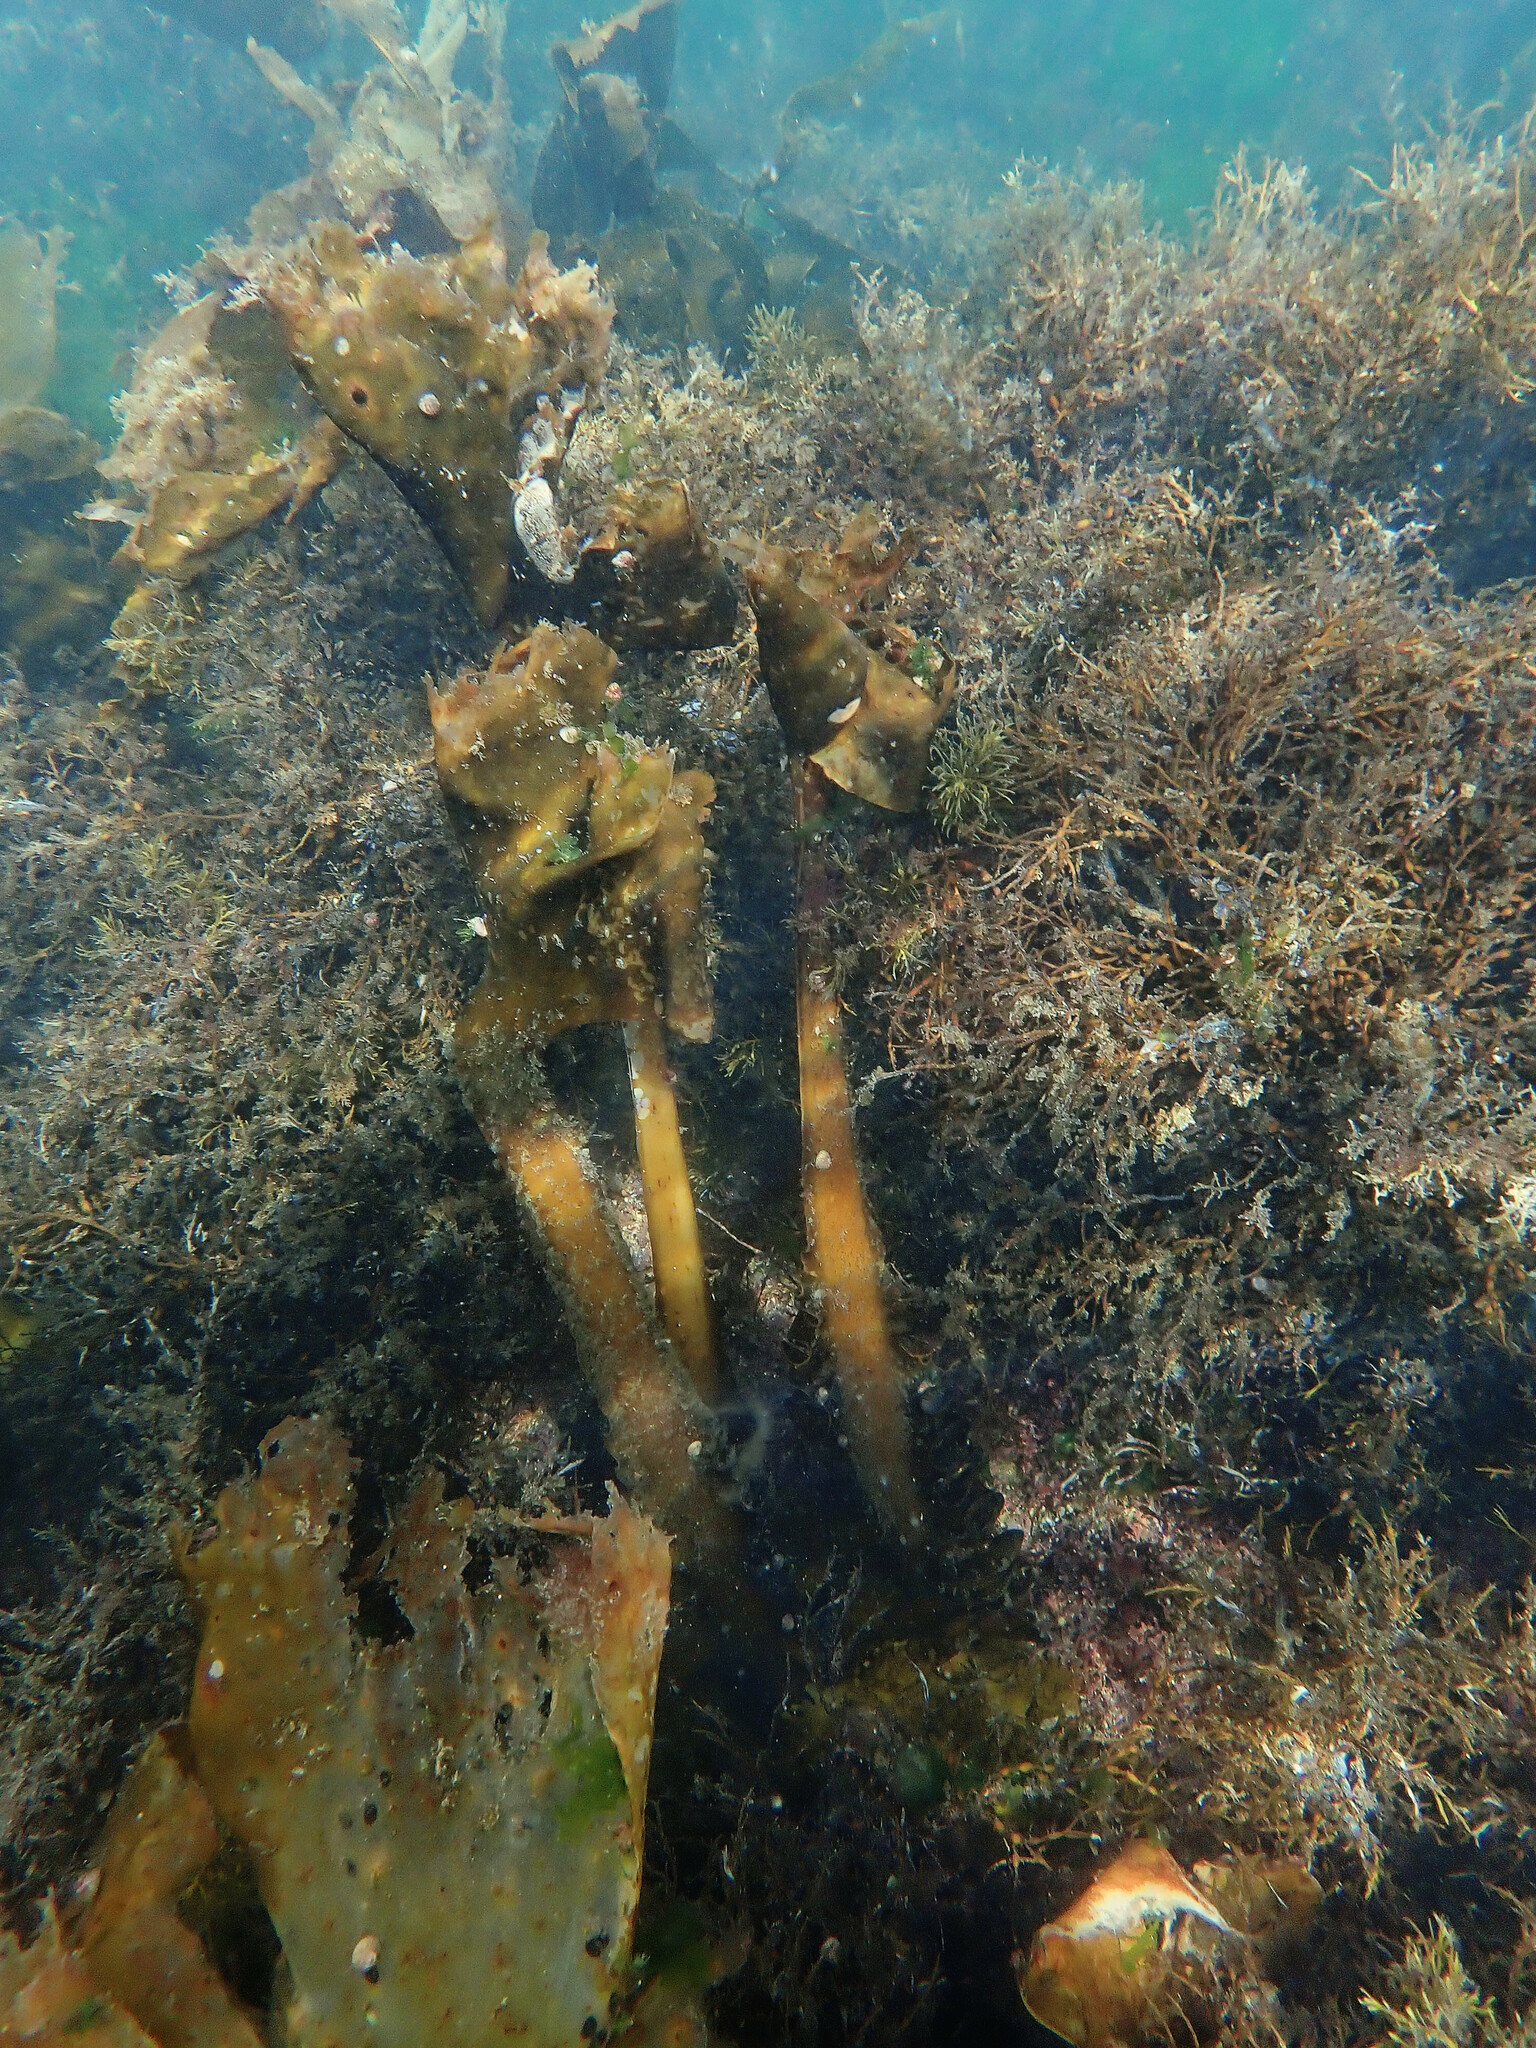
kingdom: Chromista
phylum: Ochrophyta
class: Phaeophyceae
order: Tilopteridales
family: Phyllariaceae
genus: Saccorhiza
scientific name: Saccorhiza polyschides
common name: Furbelows
